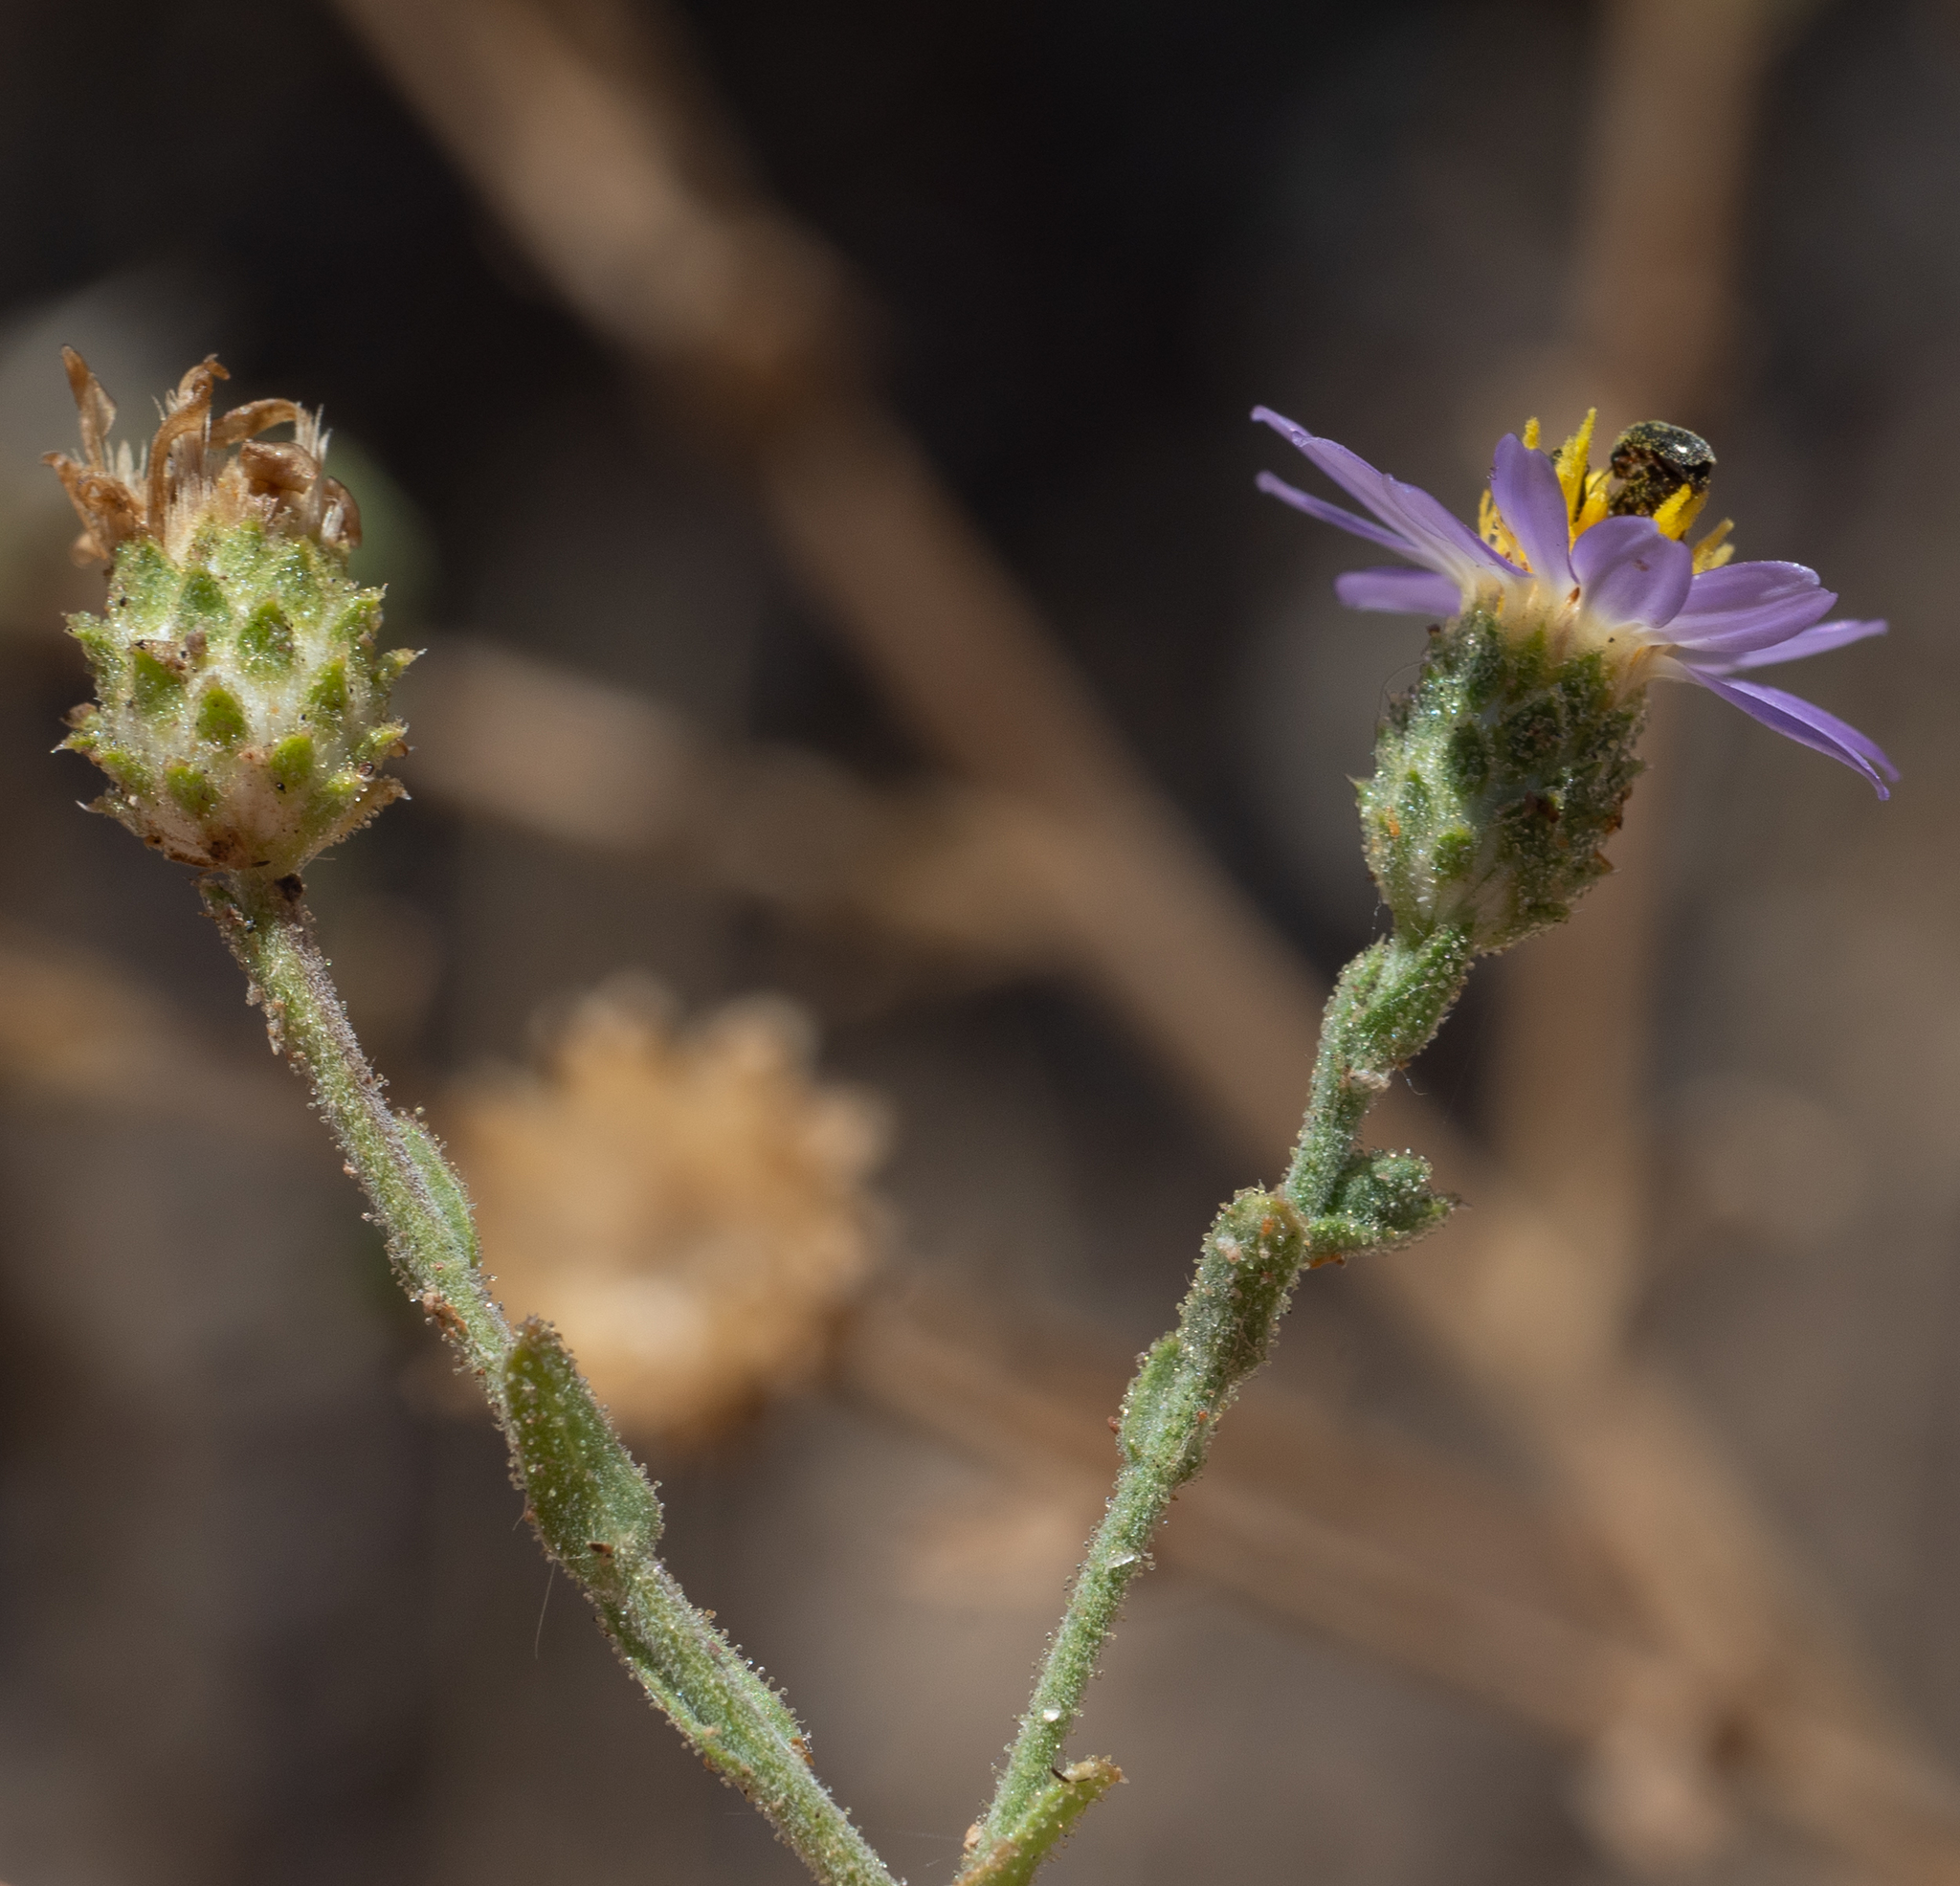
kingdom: Plantae
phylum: Tracheophyta
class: Magnoliopsida
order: Asterales
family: Asteraceae
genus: Dieteria
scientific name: Dieteria canescens
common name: Hoary-aster
